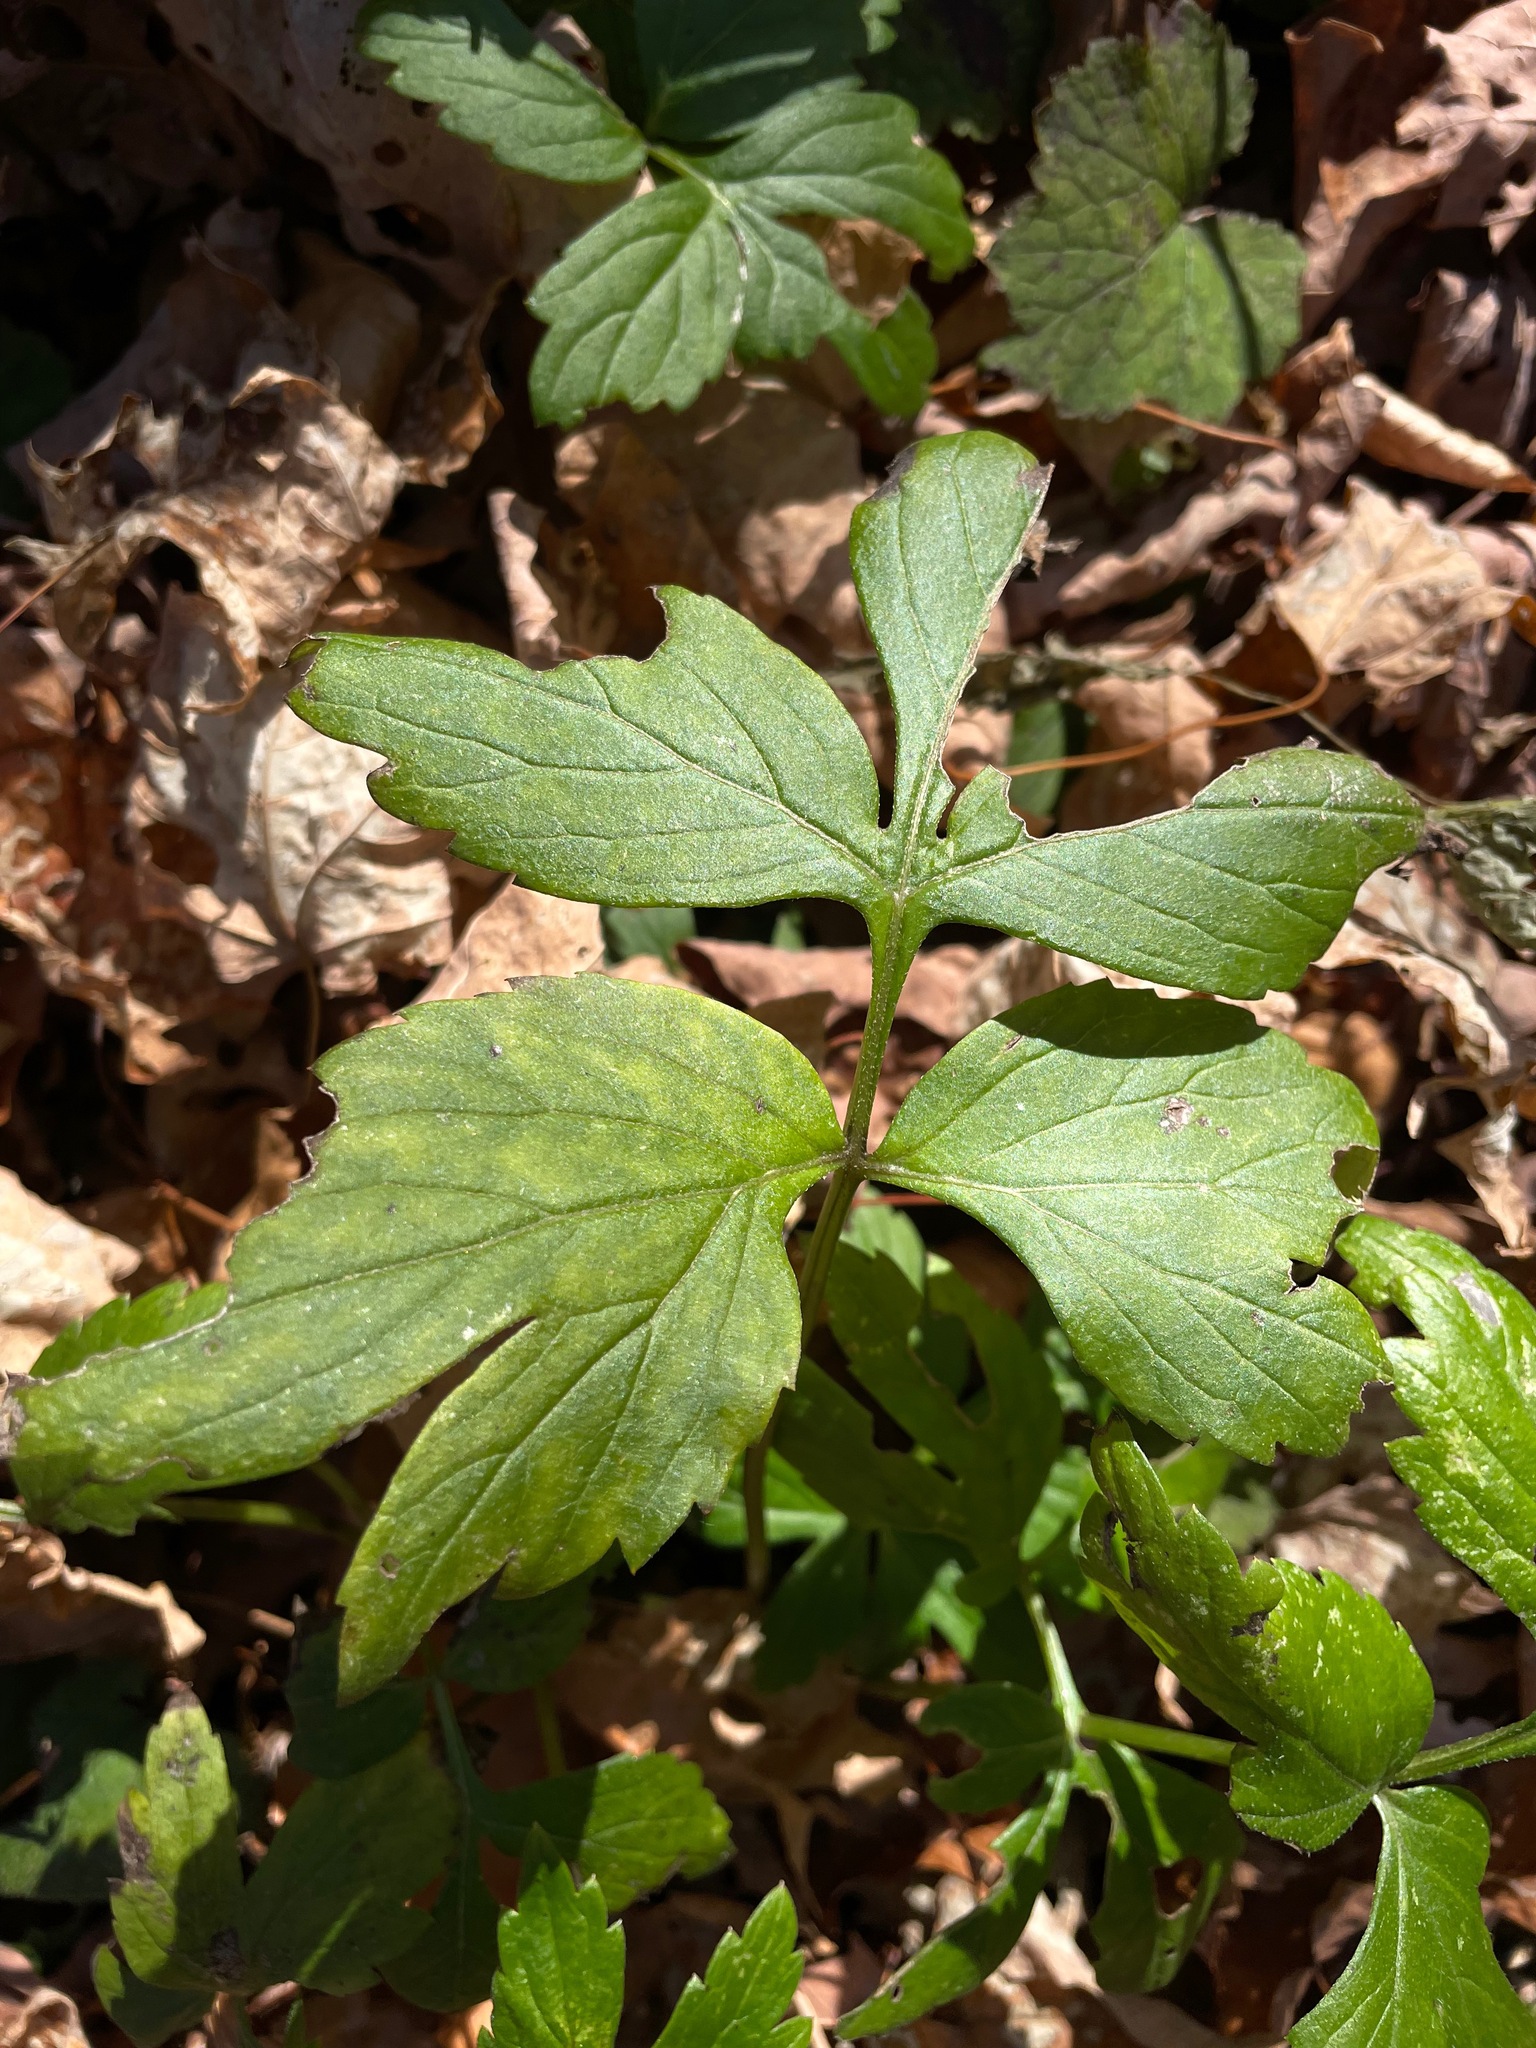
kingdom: Plantae
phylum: Tracheophyta
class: Magnoliopsida
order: Boraginales
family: Hydrophyllaceae
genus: Hydrophyllum
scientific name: Hydrophyllum virginianum
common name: Virginia waterleaf
